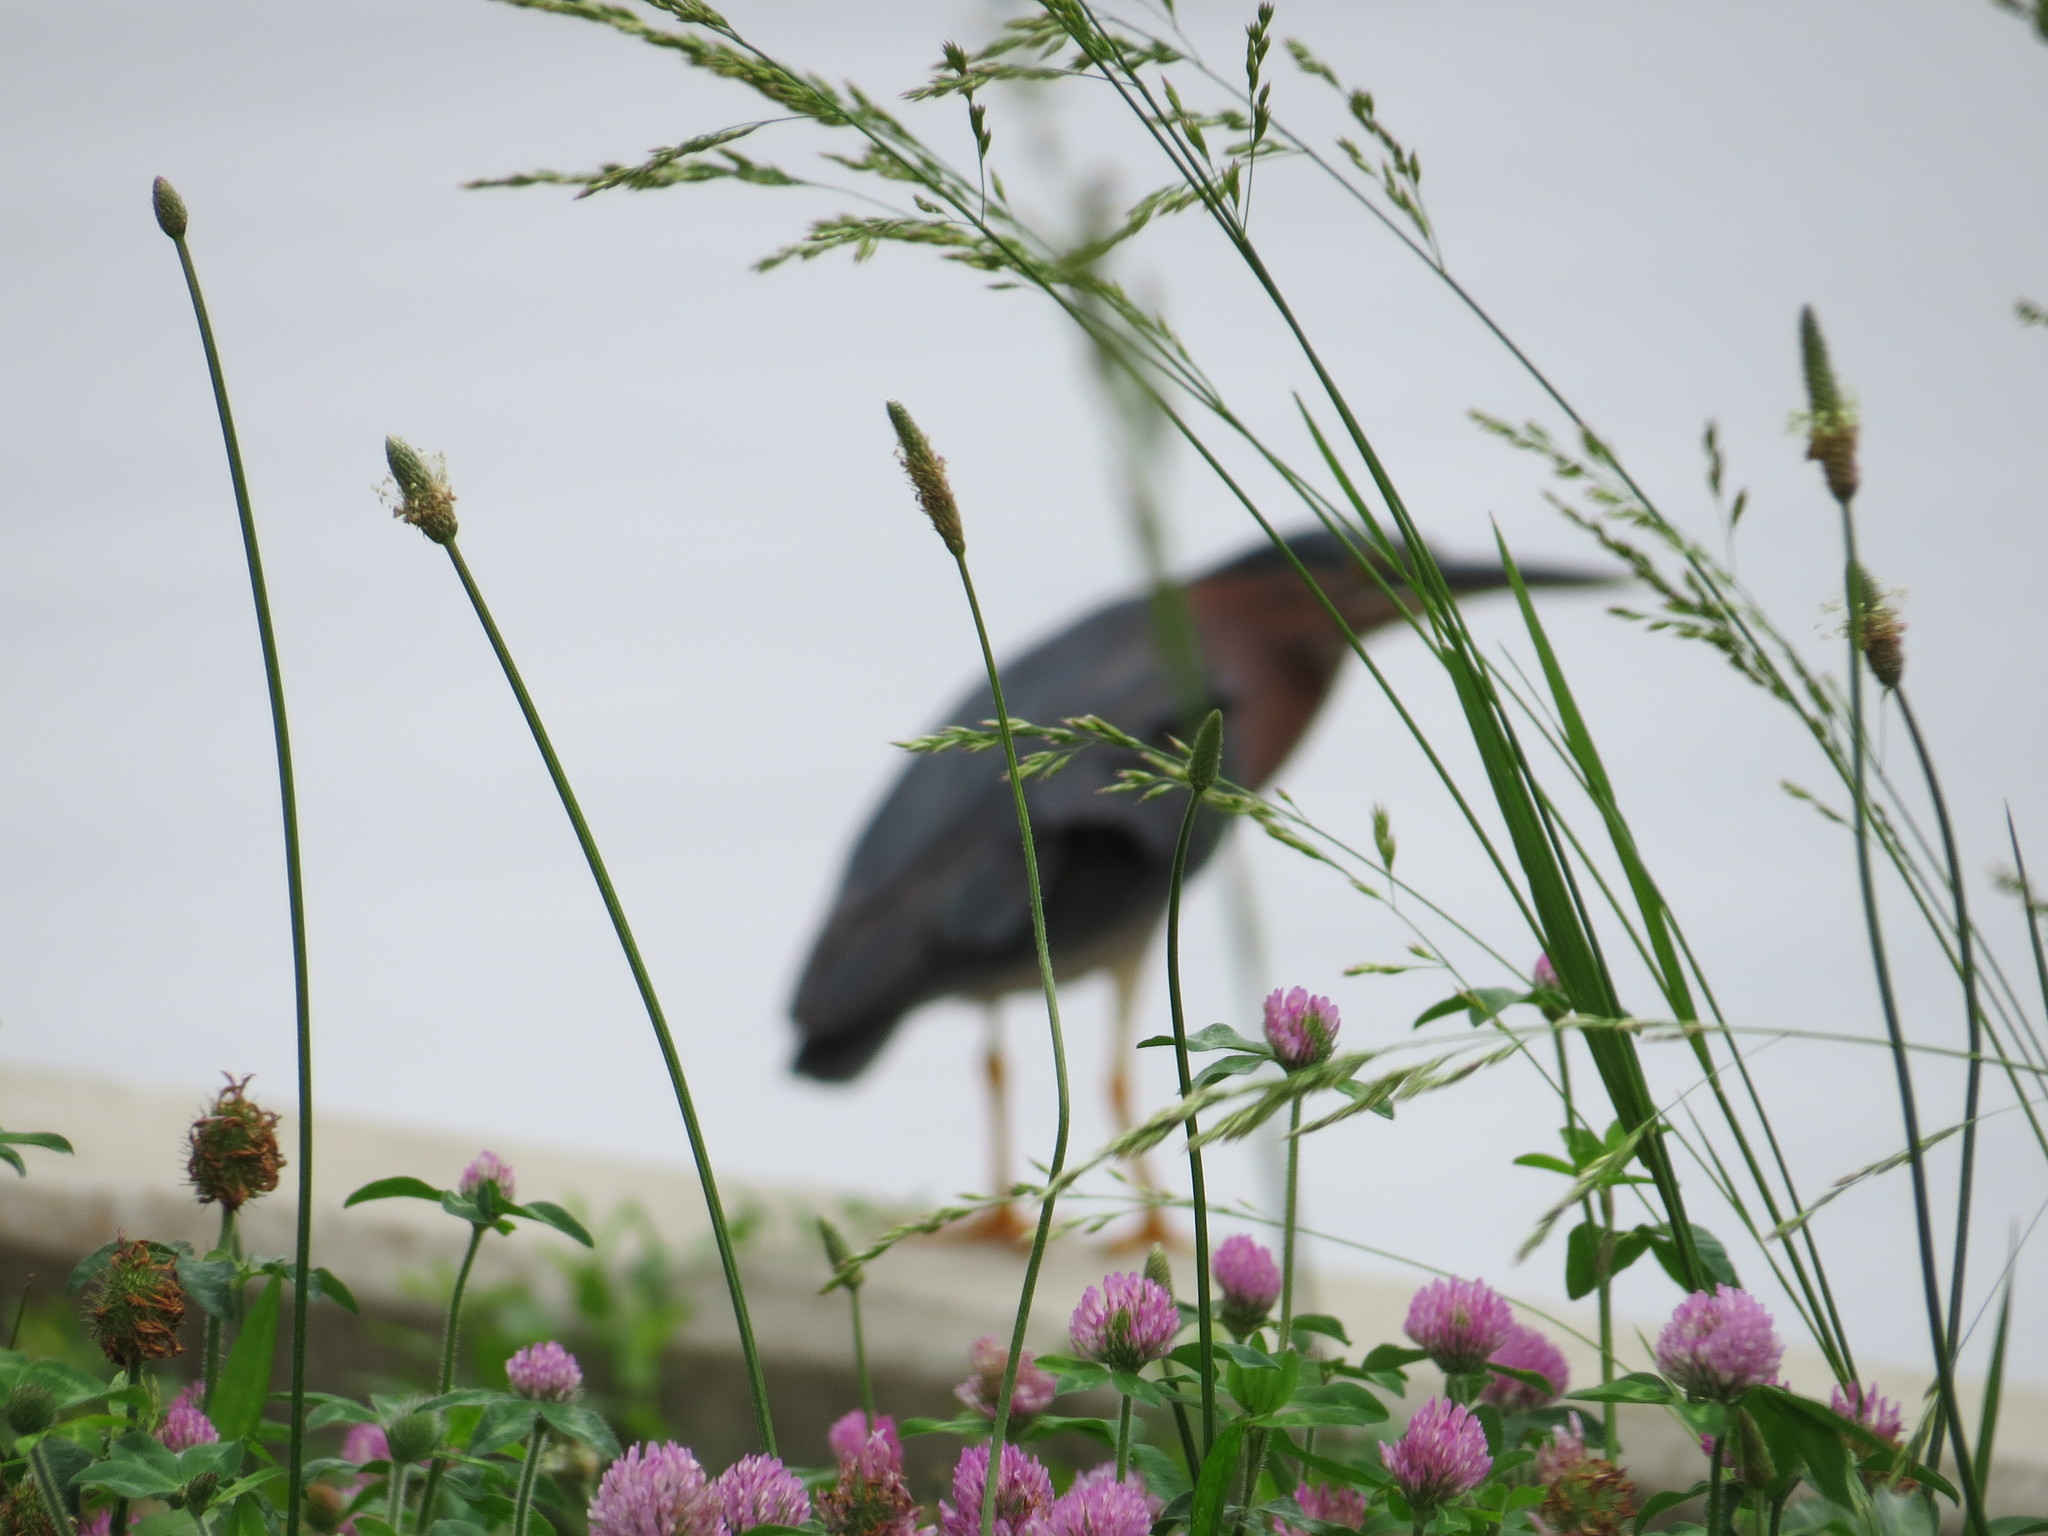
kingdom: Animalia
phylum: Chordata
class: Aves
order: Pelecaniformes
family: Ardeidae
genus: Butorides
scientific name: Butorides virescens
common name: Green heron
